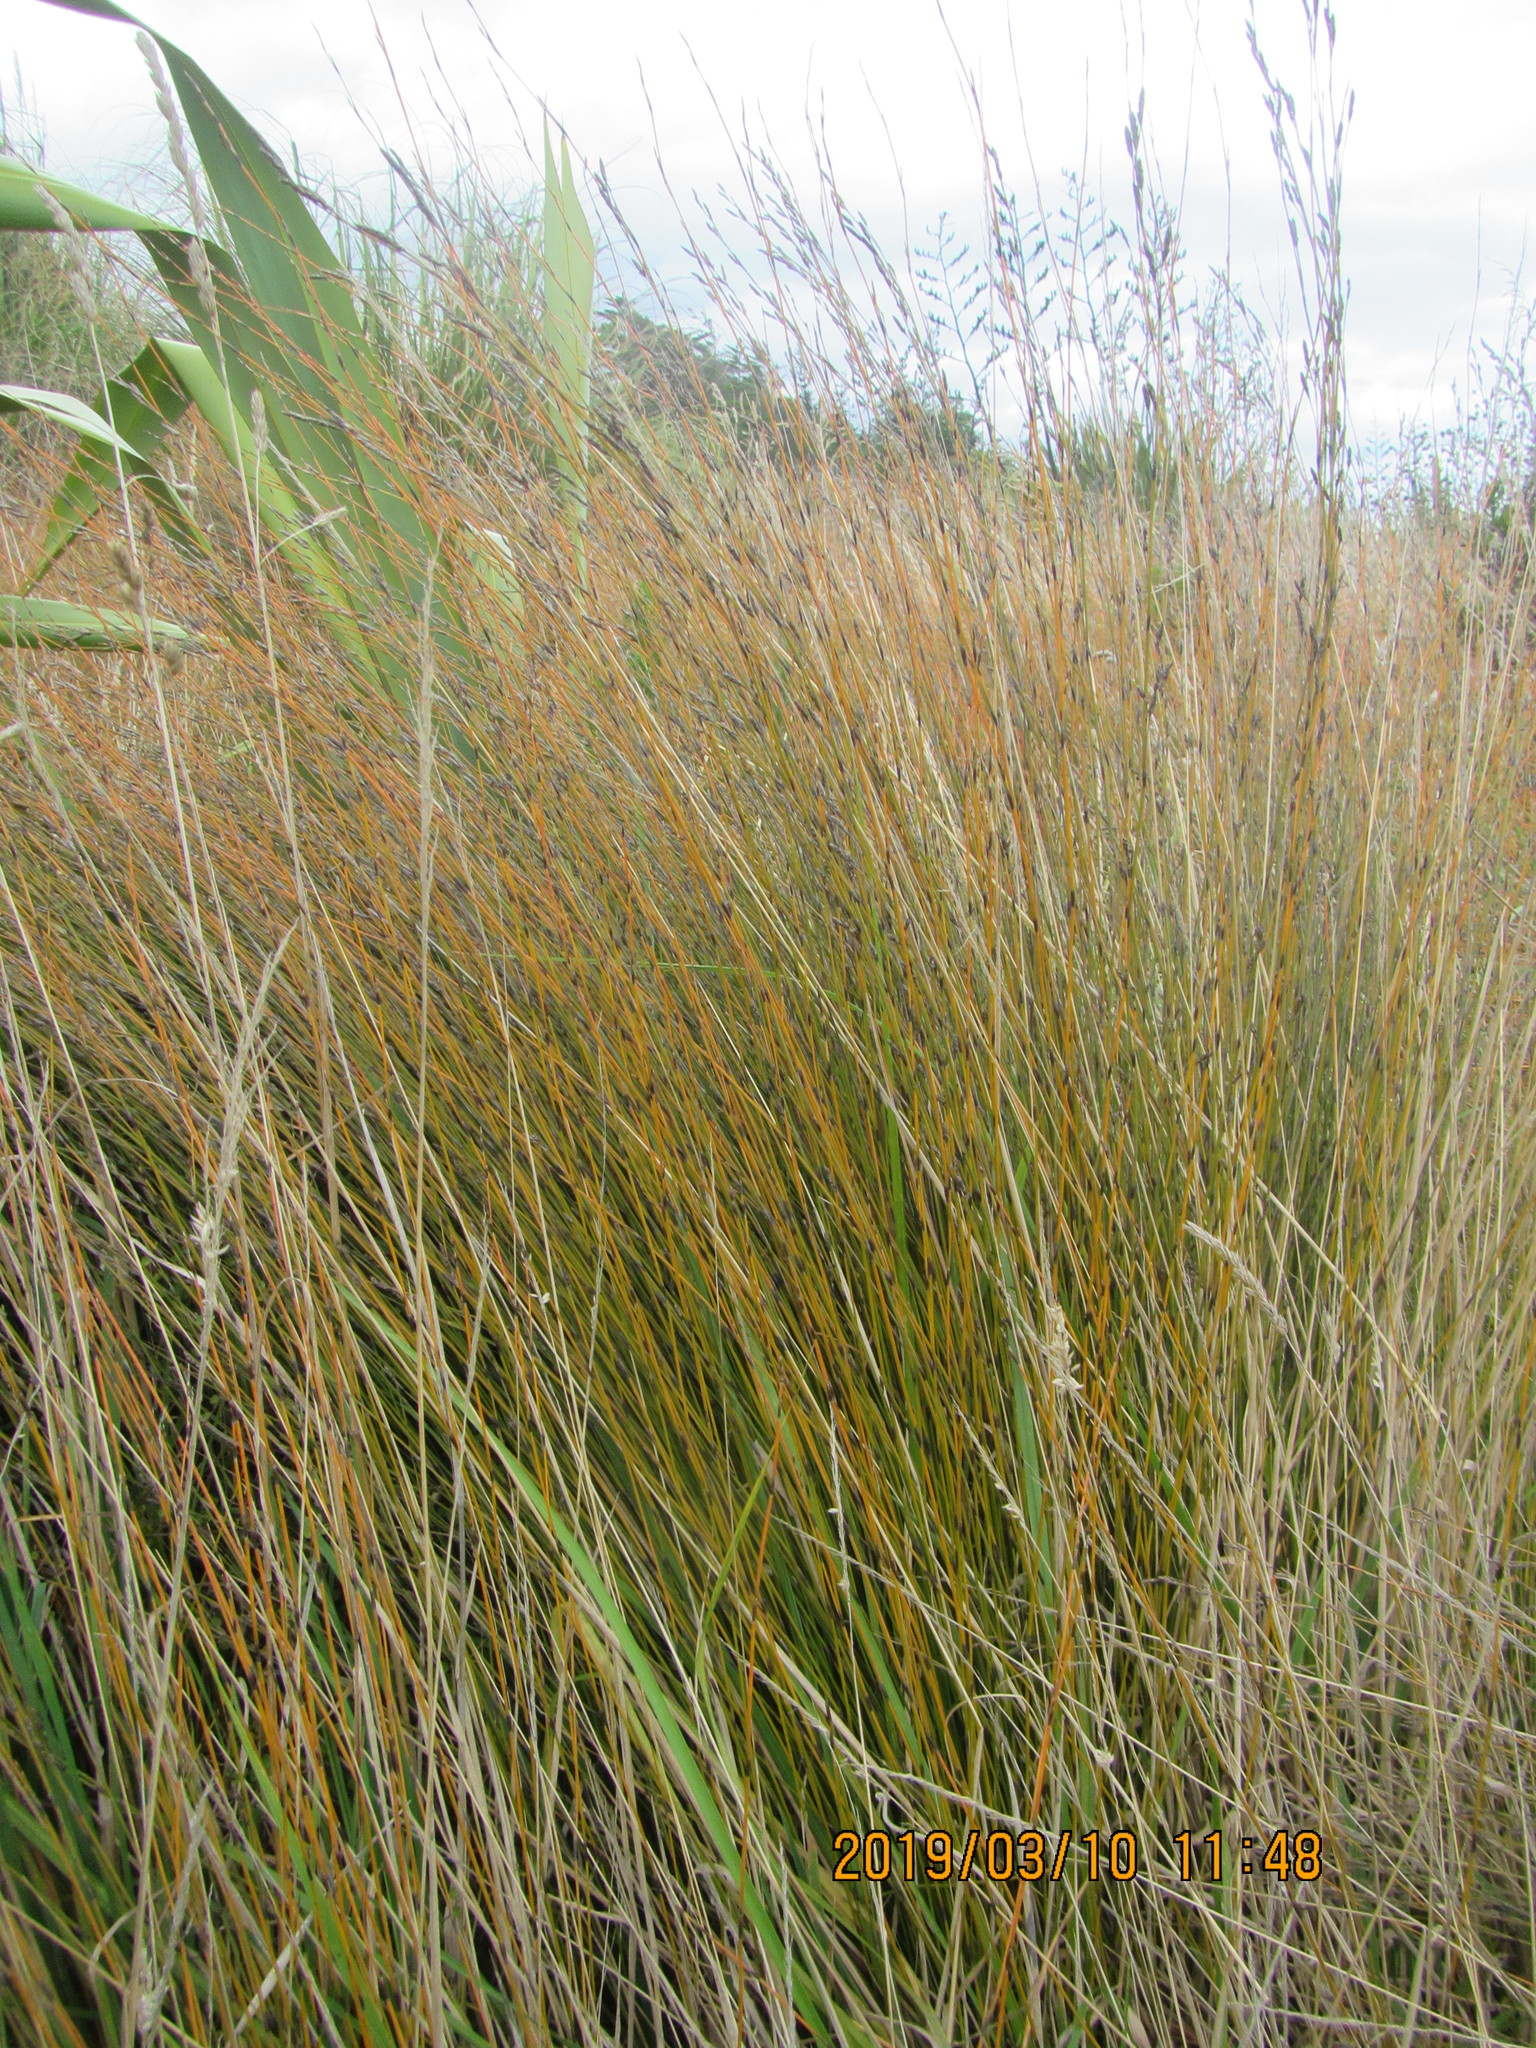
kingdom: Plantae
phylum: Tracheophyta
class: Liliopsida
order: Poales
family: Restionaceae
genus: Apodasmia
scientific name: Apodasmia similis
